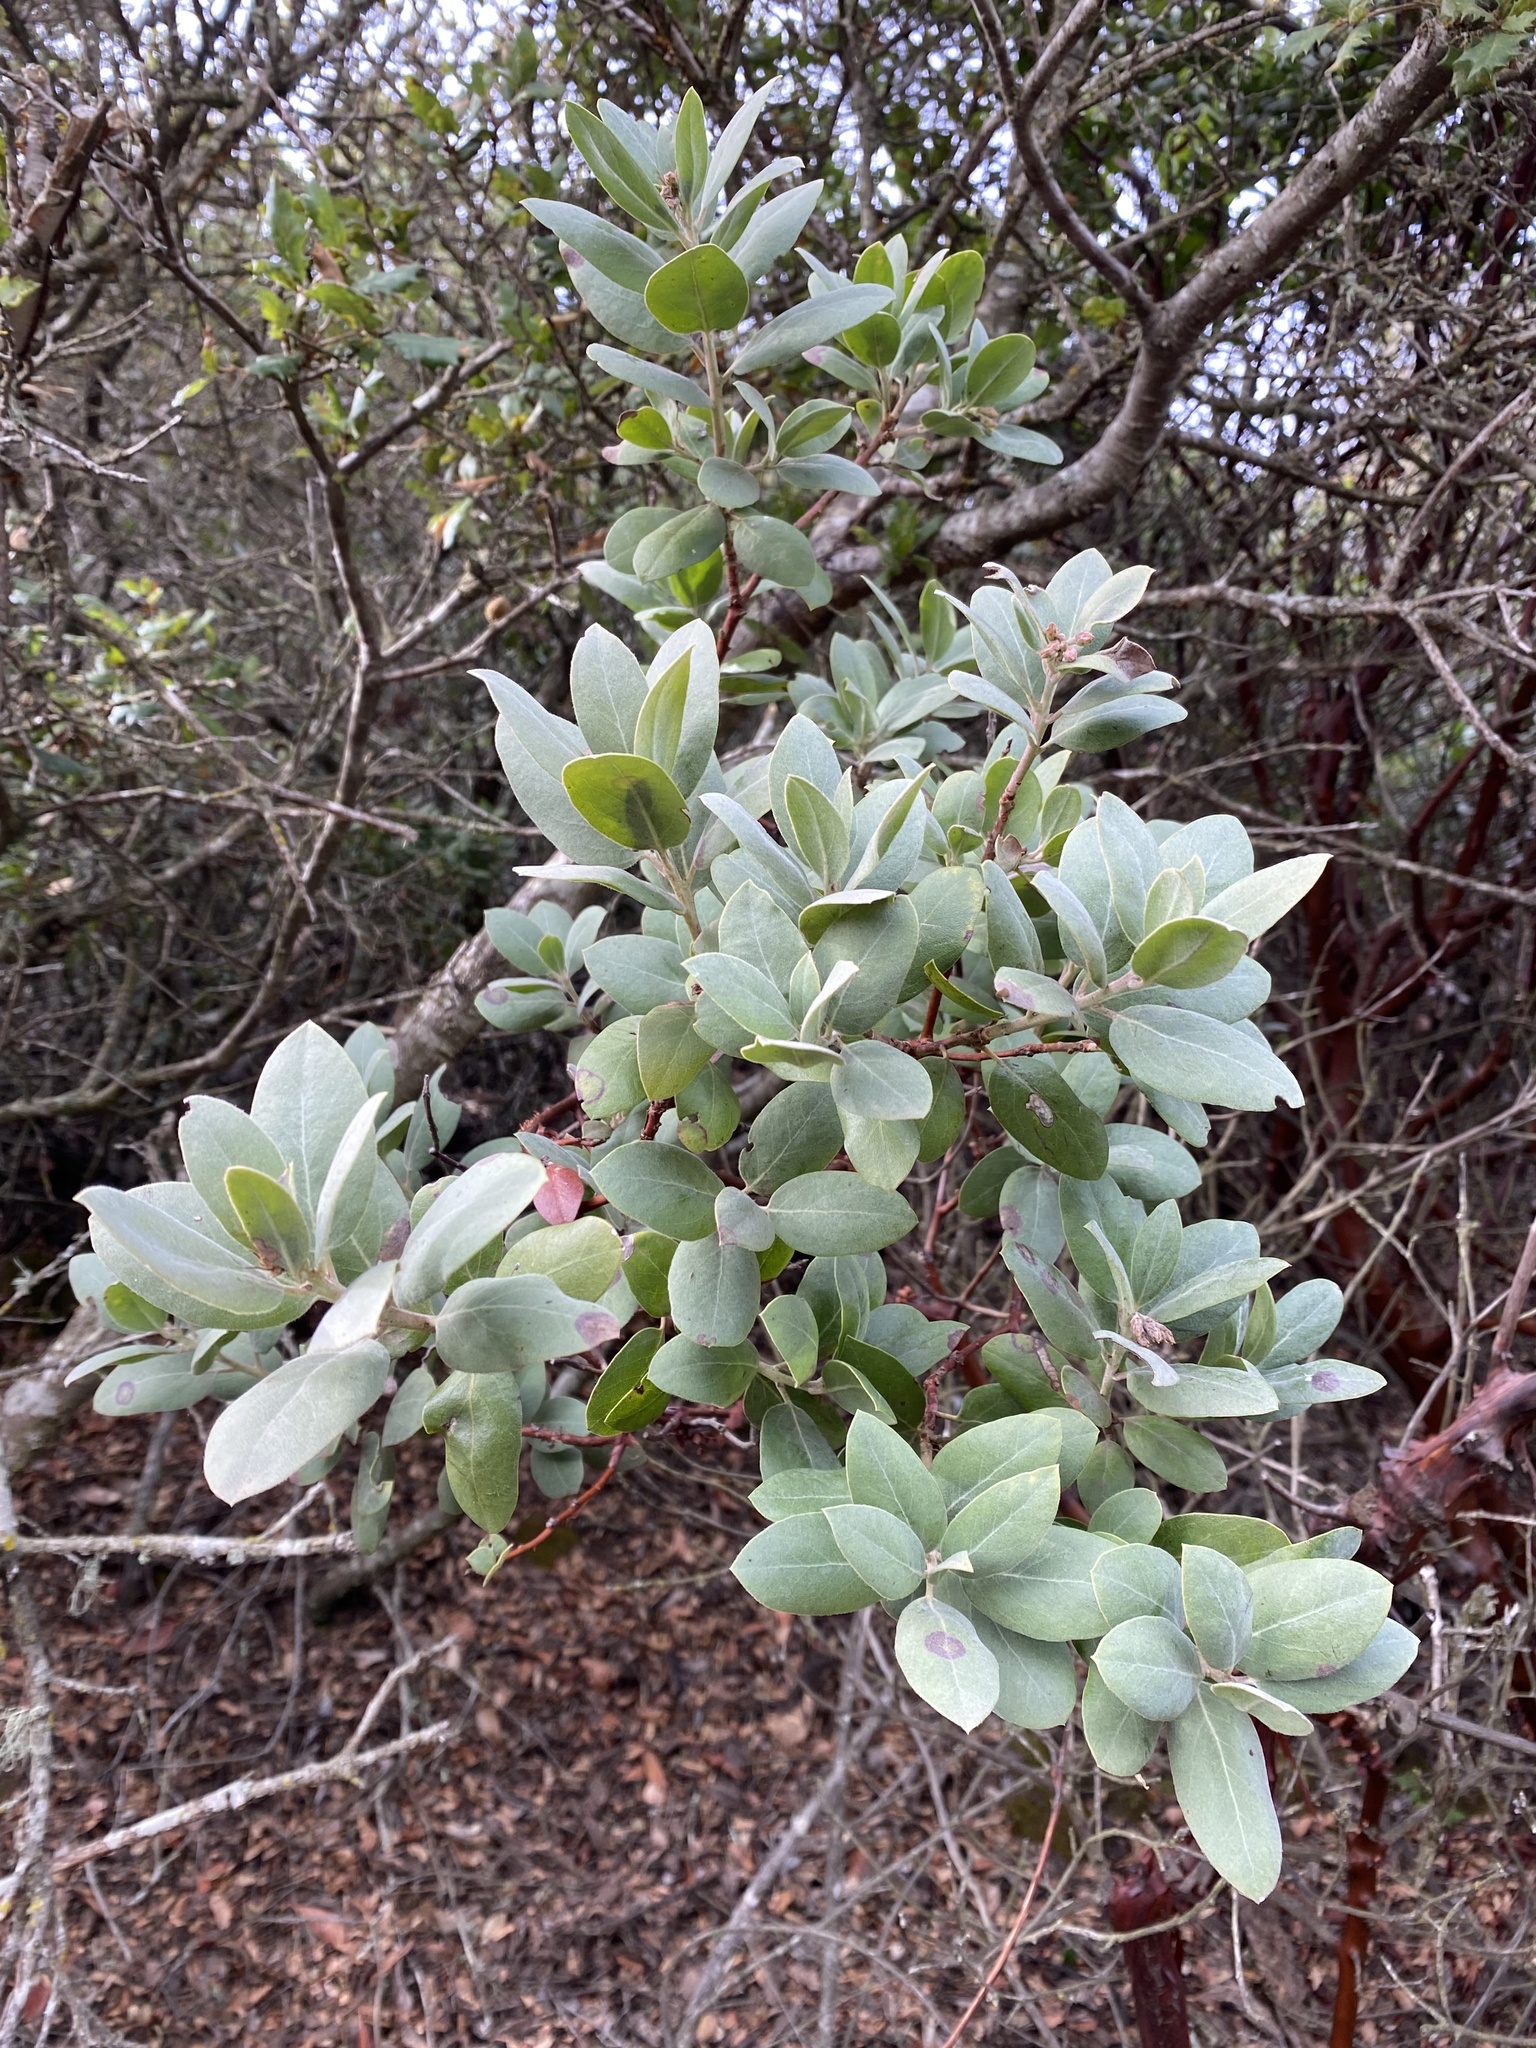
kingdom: Plantae
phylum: Tracheophyta
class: Magnoliopsida
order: Ericales
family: Ericaceae
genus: Arctostaphylos
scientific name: Arctostaphylos glandulosa
